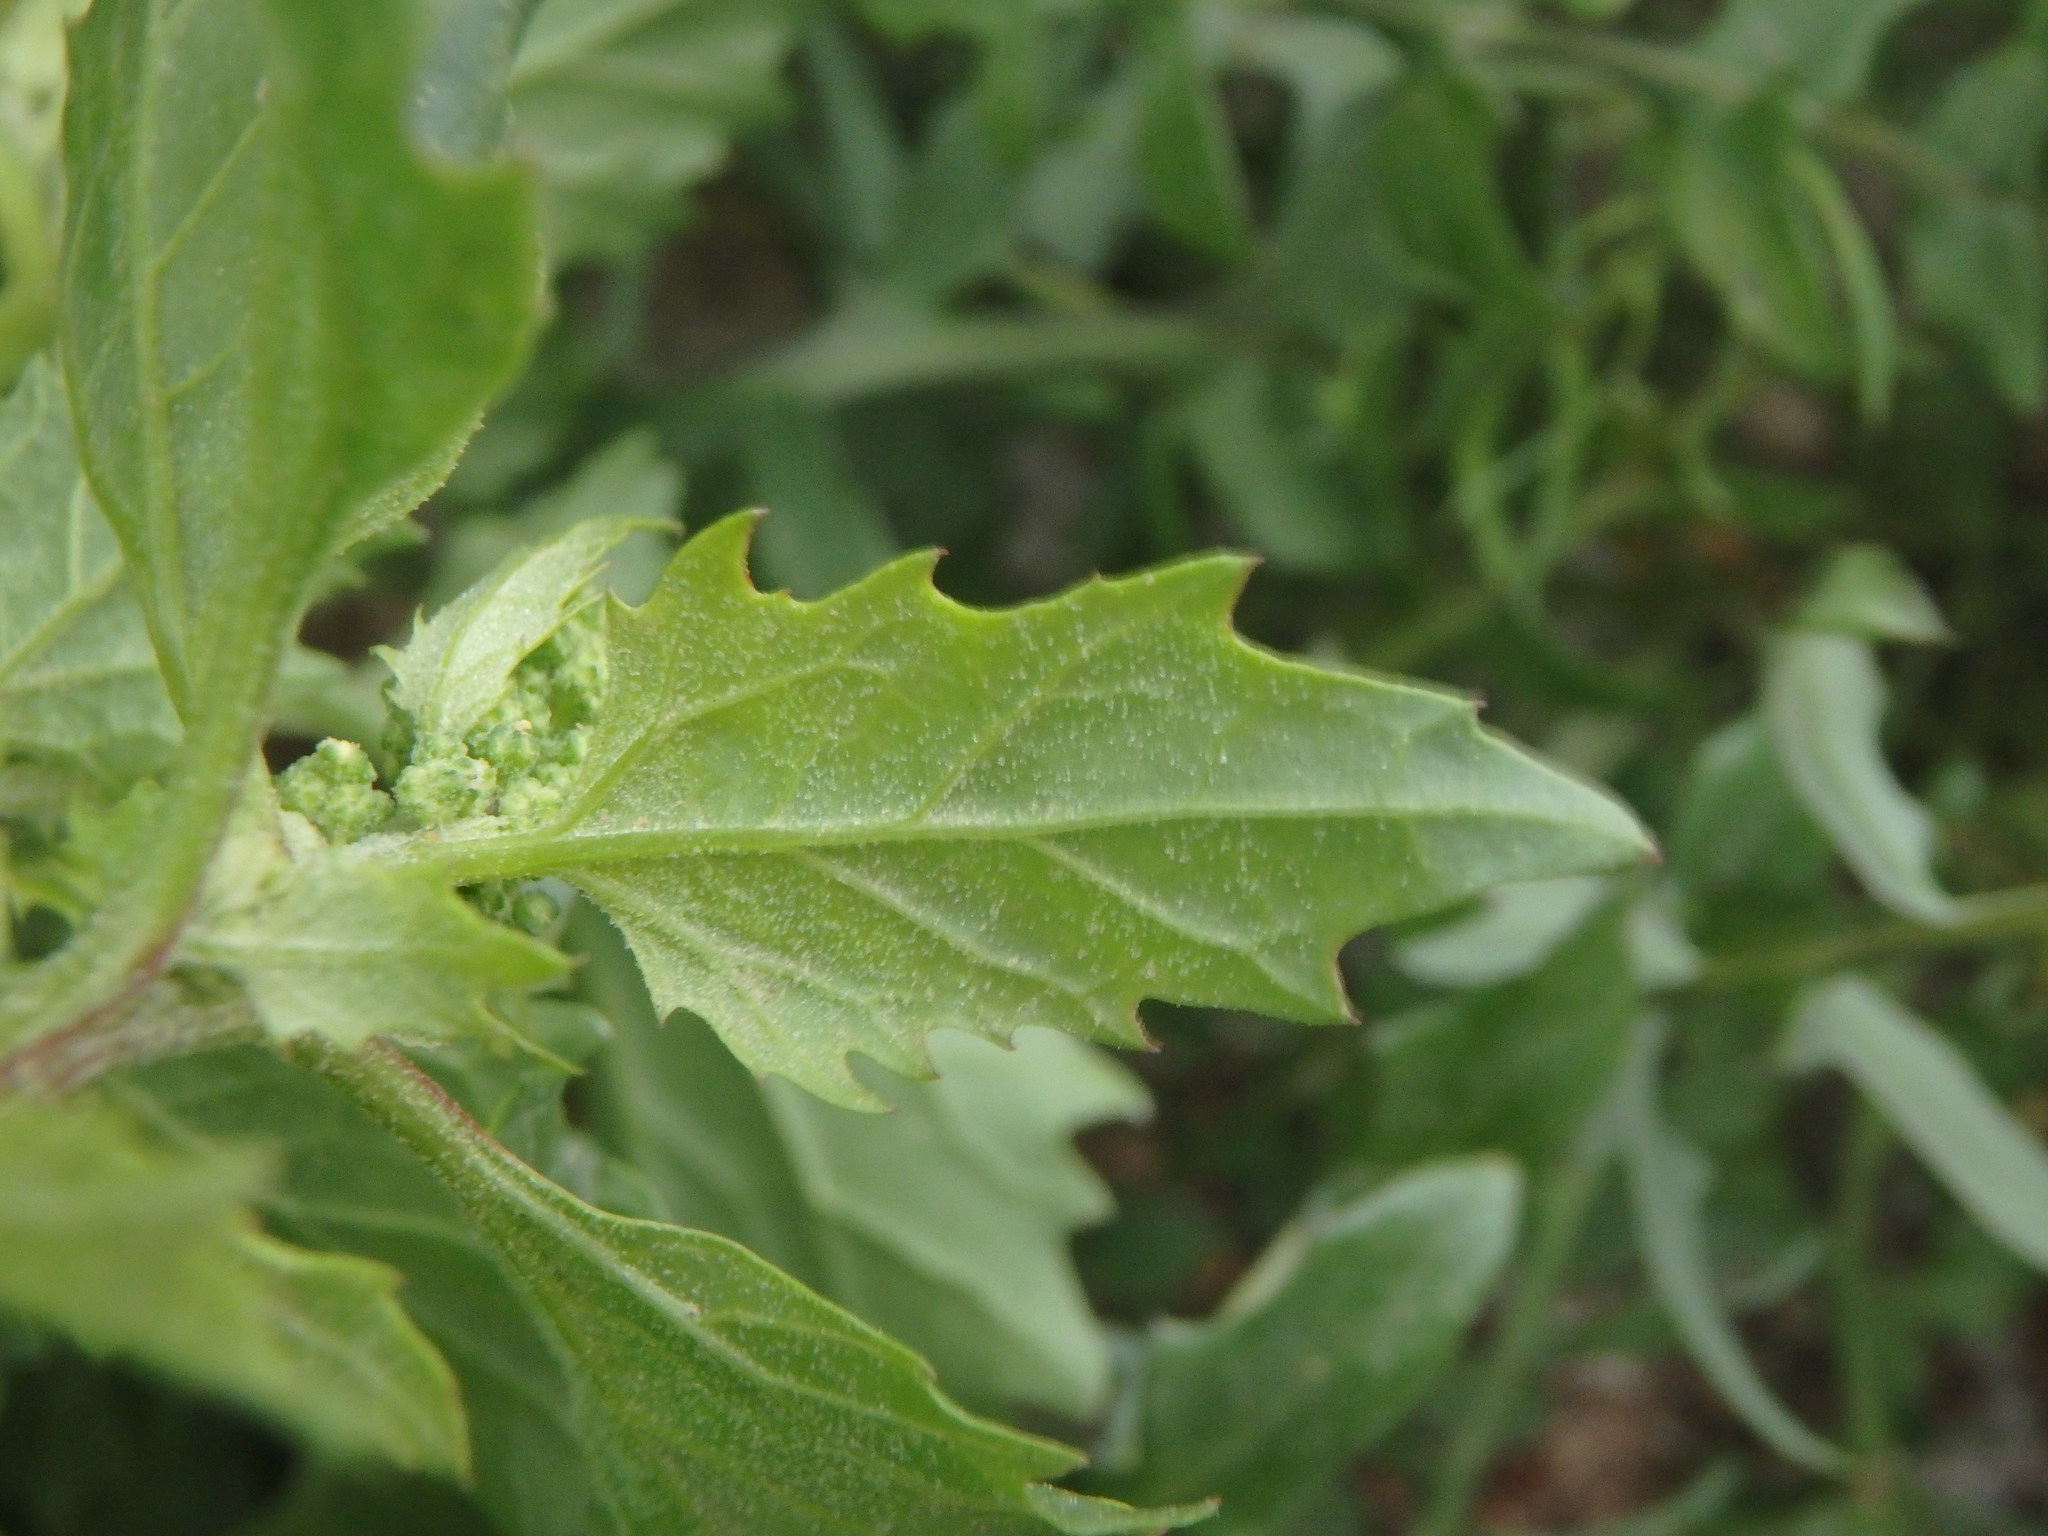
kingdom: Plantae
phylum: Tracheophyta
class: Magnoliopsida
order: Caryophyllales
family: Amaranthaceae
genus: Chenopodiastrum
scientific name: Chenopodiastrum murale
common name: Sowbane
